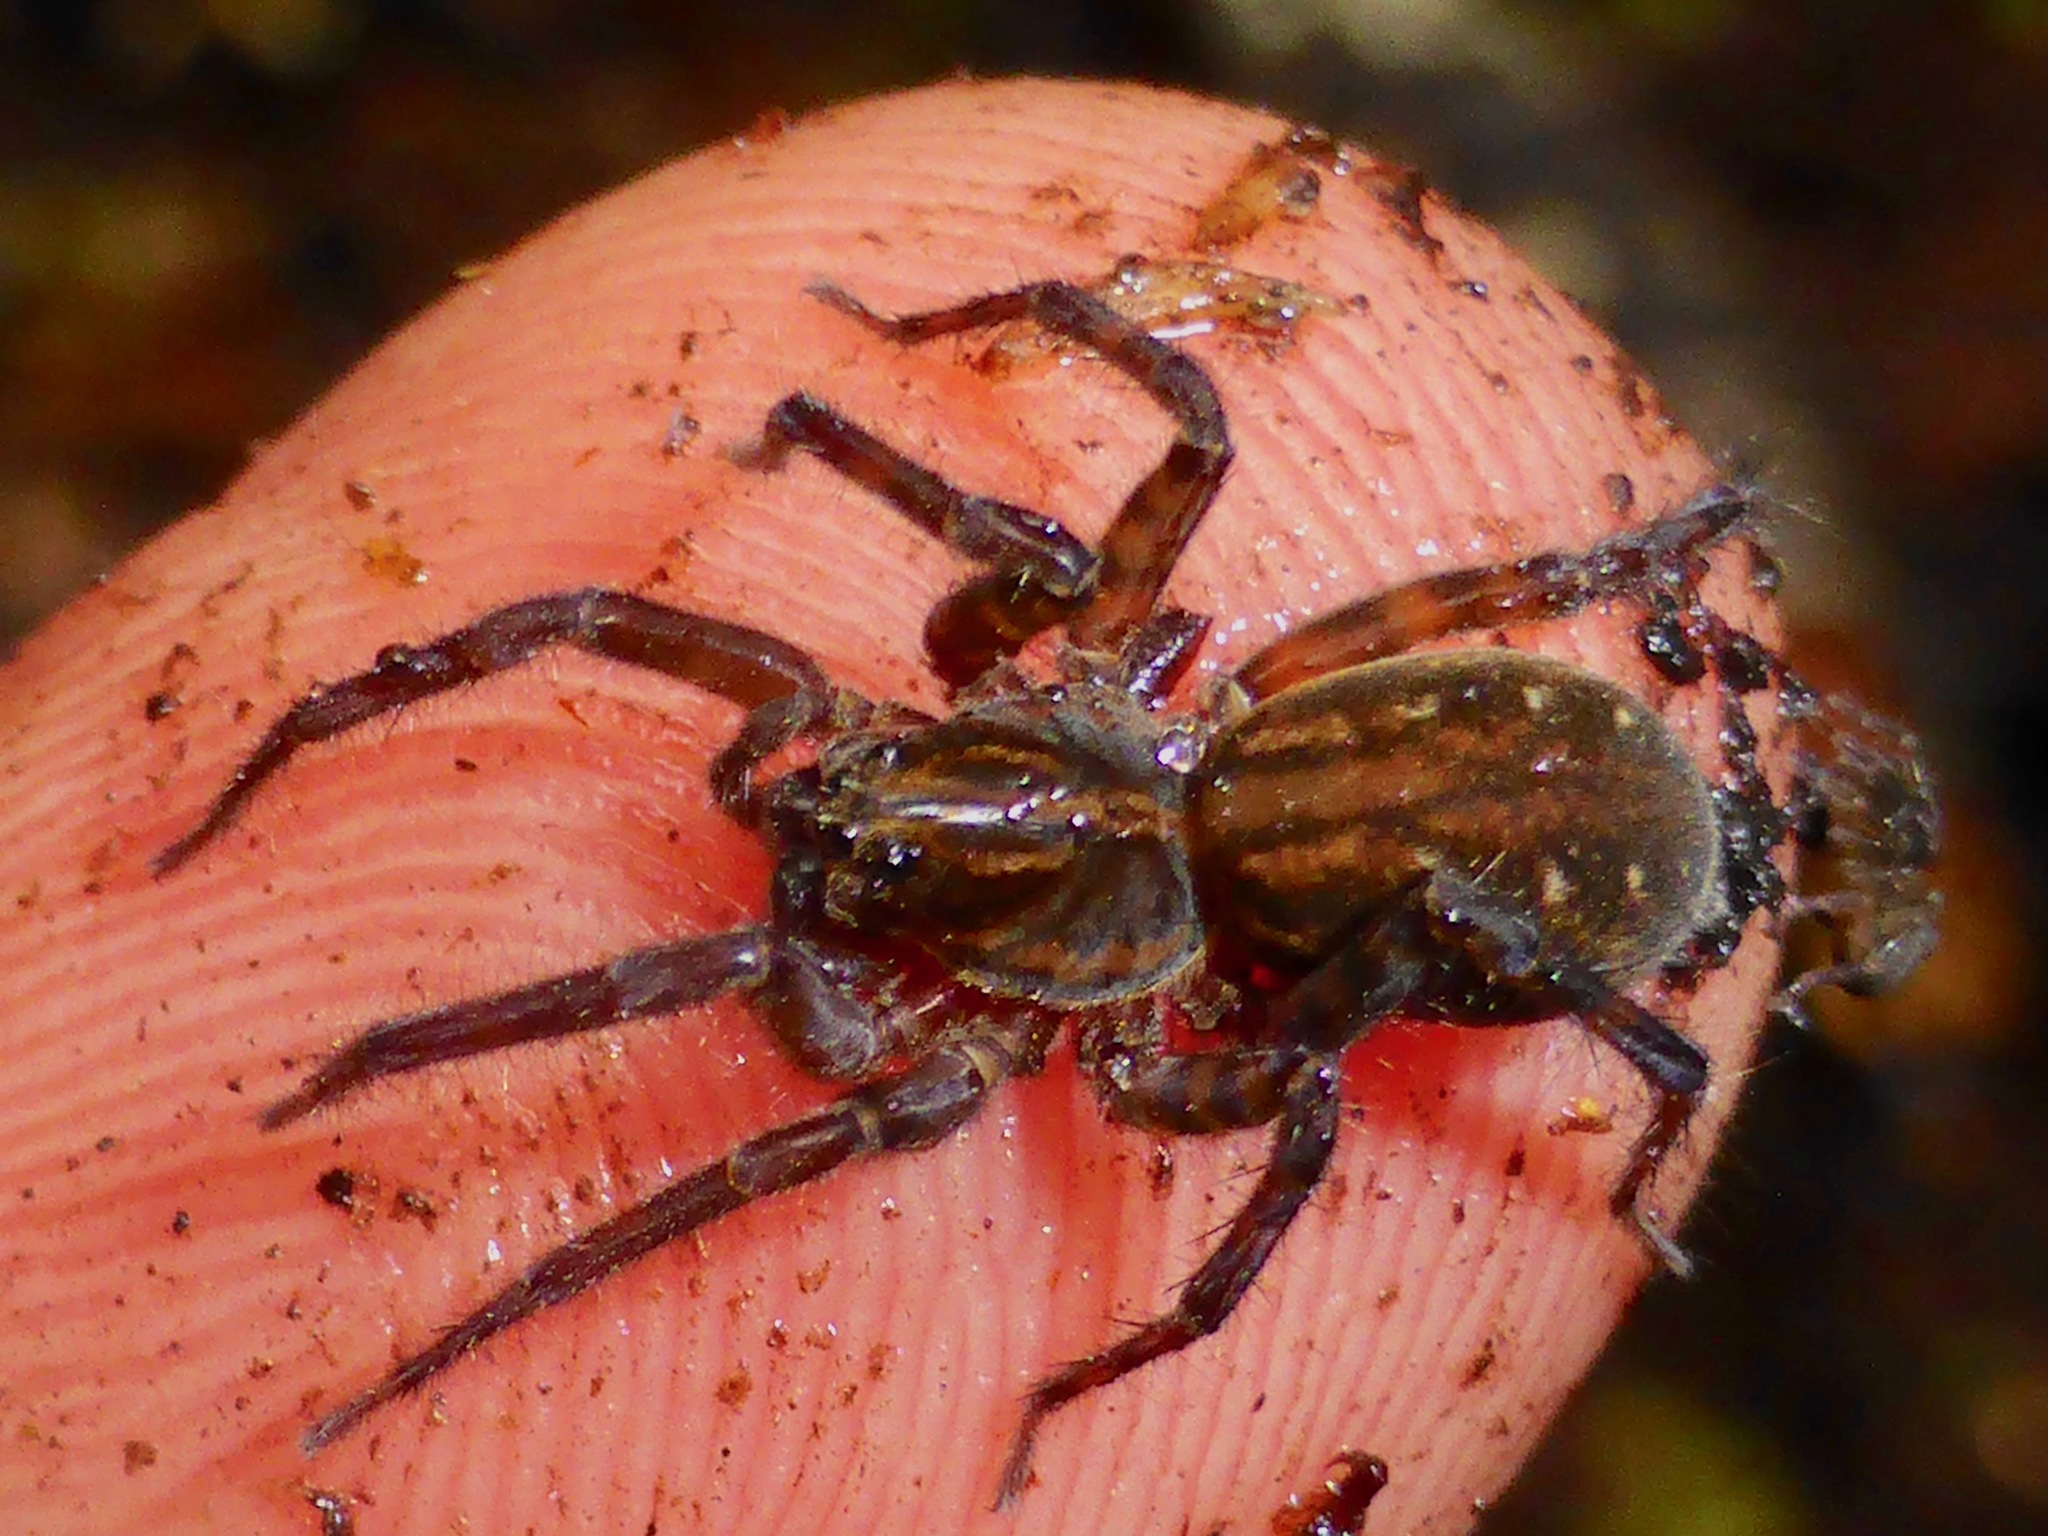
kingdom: Animalia
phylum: Arthropoda
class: Arachnida
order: Araneae
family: Lycosidae
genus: Allotrochosina
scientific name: Allotrochosina schauinslandi
